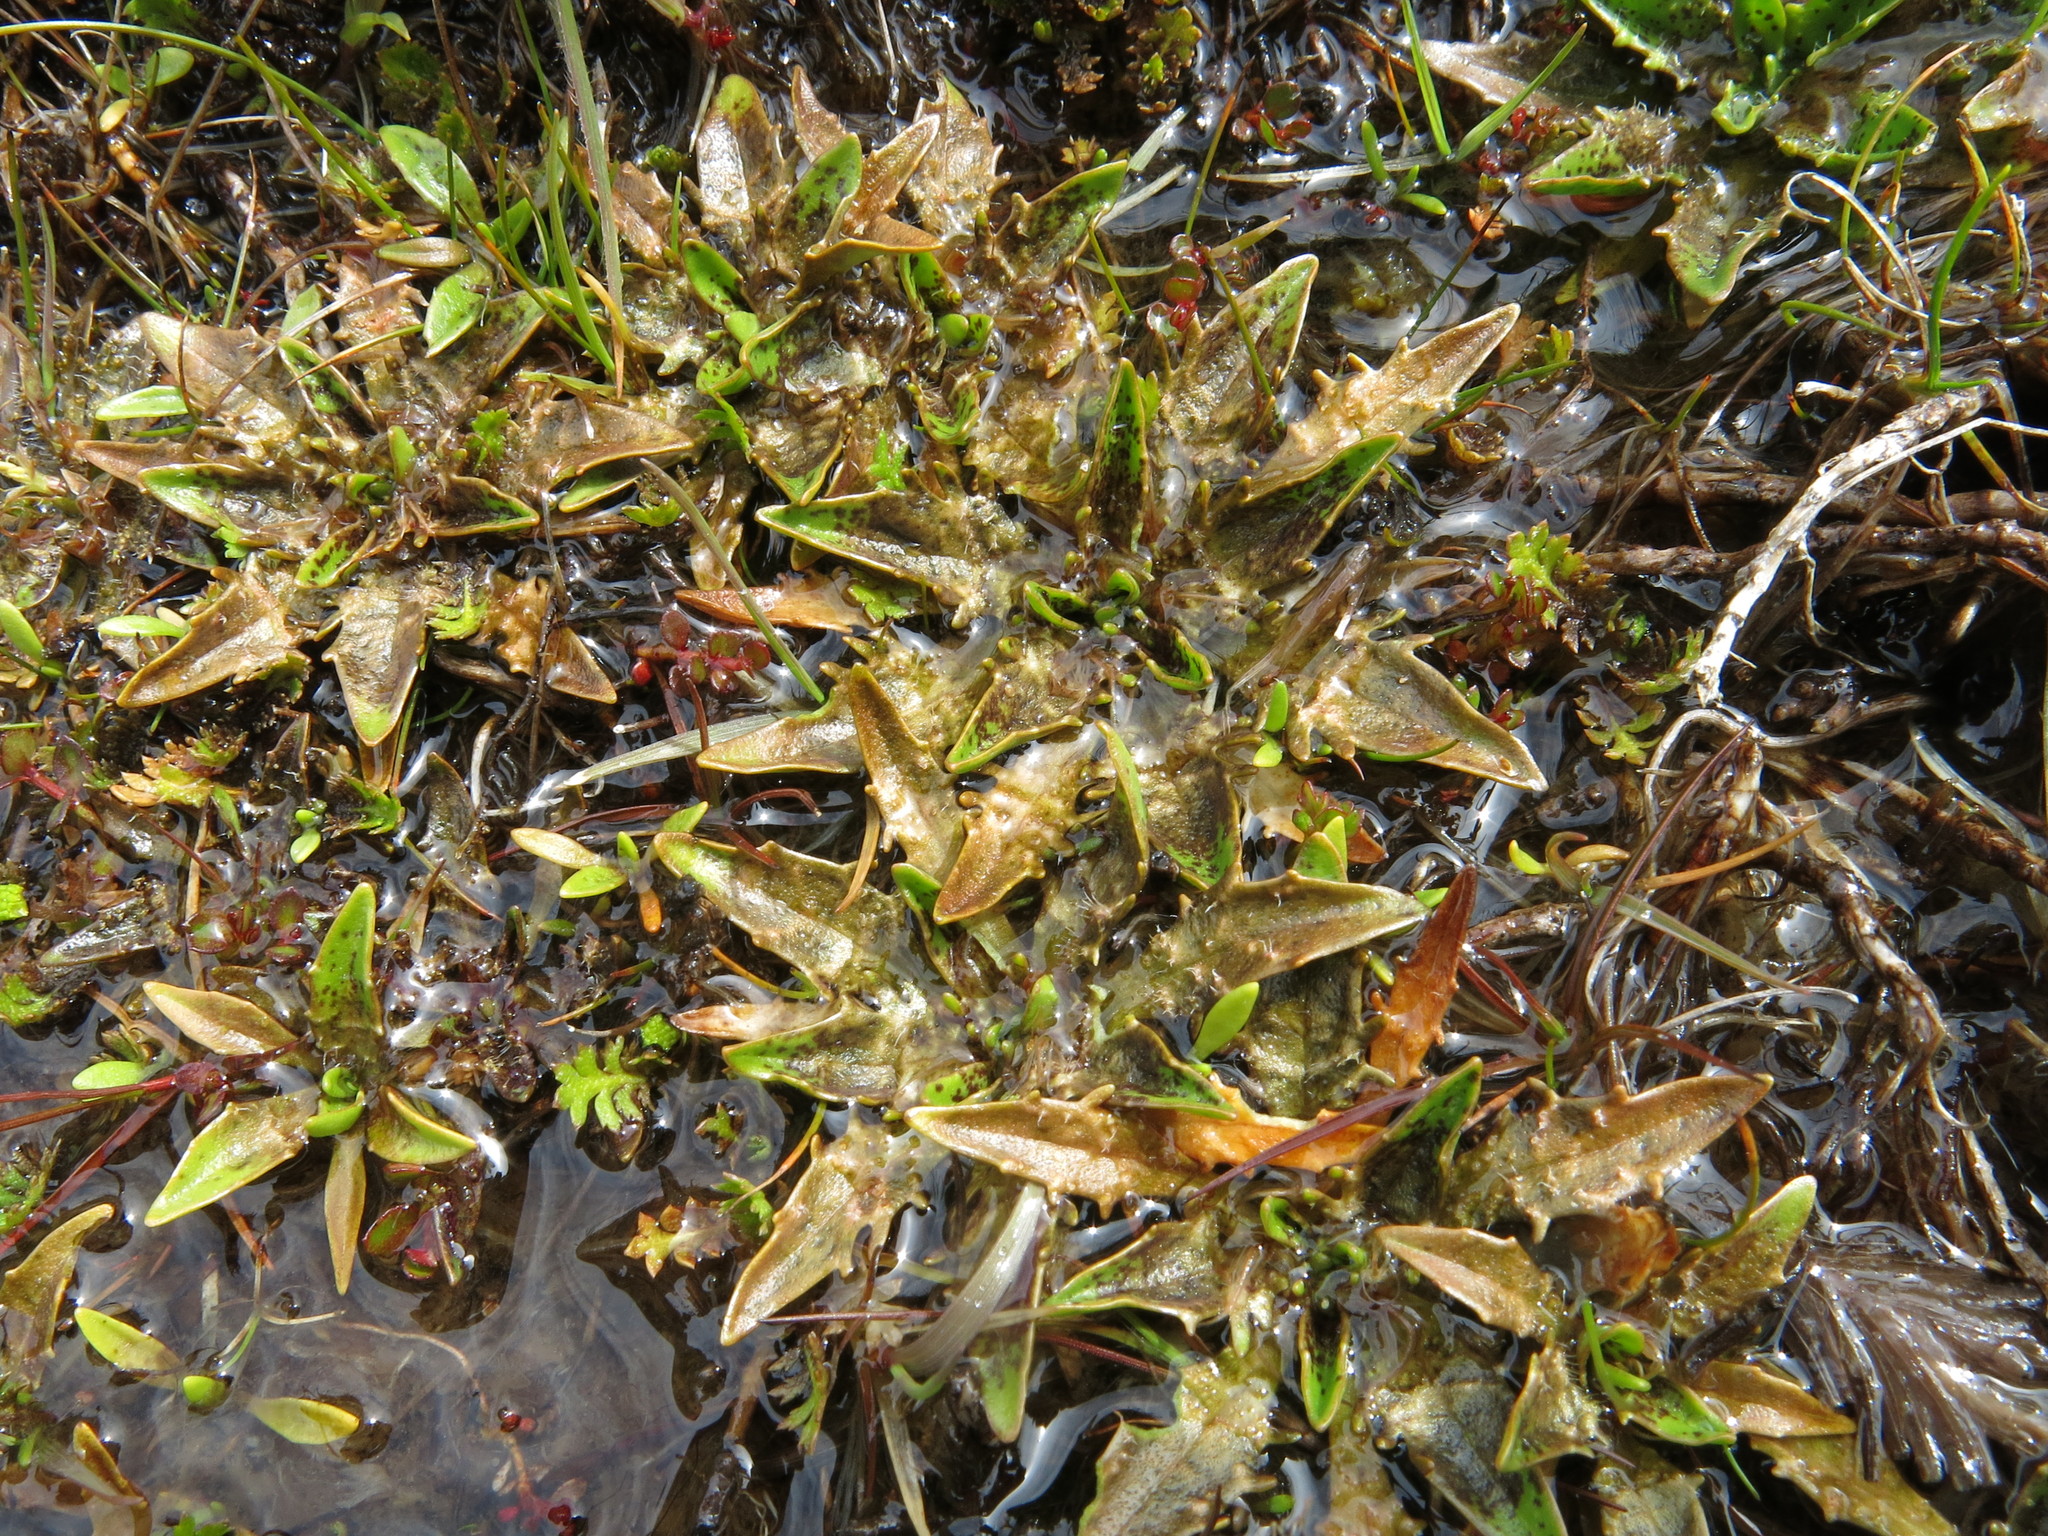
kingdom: Plantae
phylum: Tracheophyta
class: Magnoliopsida
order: Lamiales
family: Plantaginaceae
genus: Plantago
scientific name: Plantago triandra
